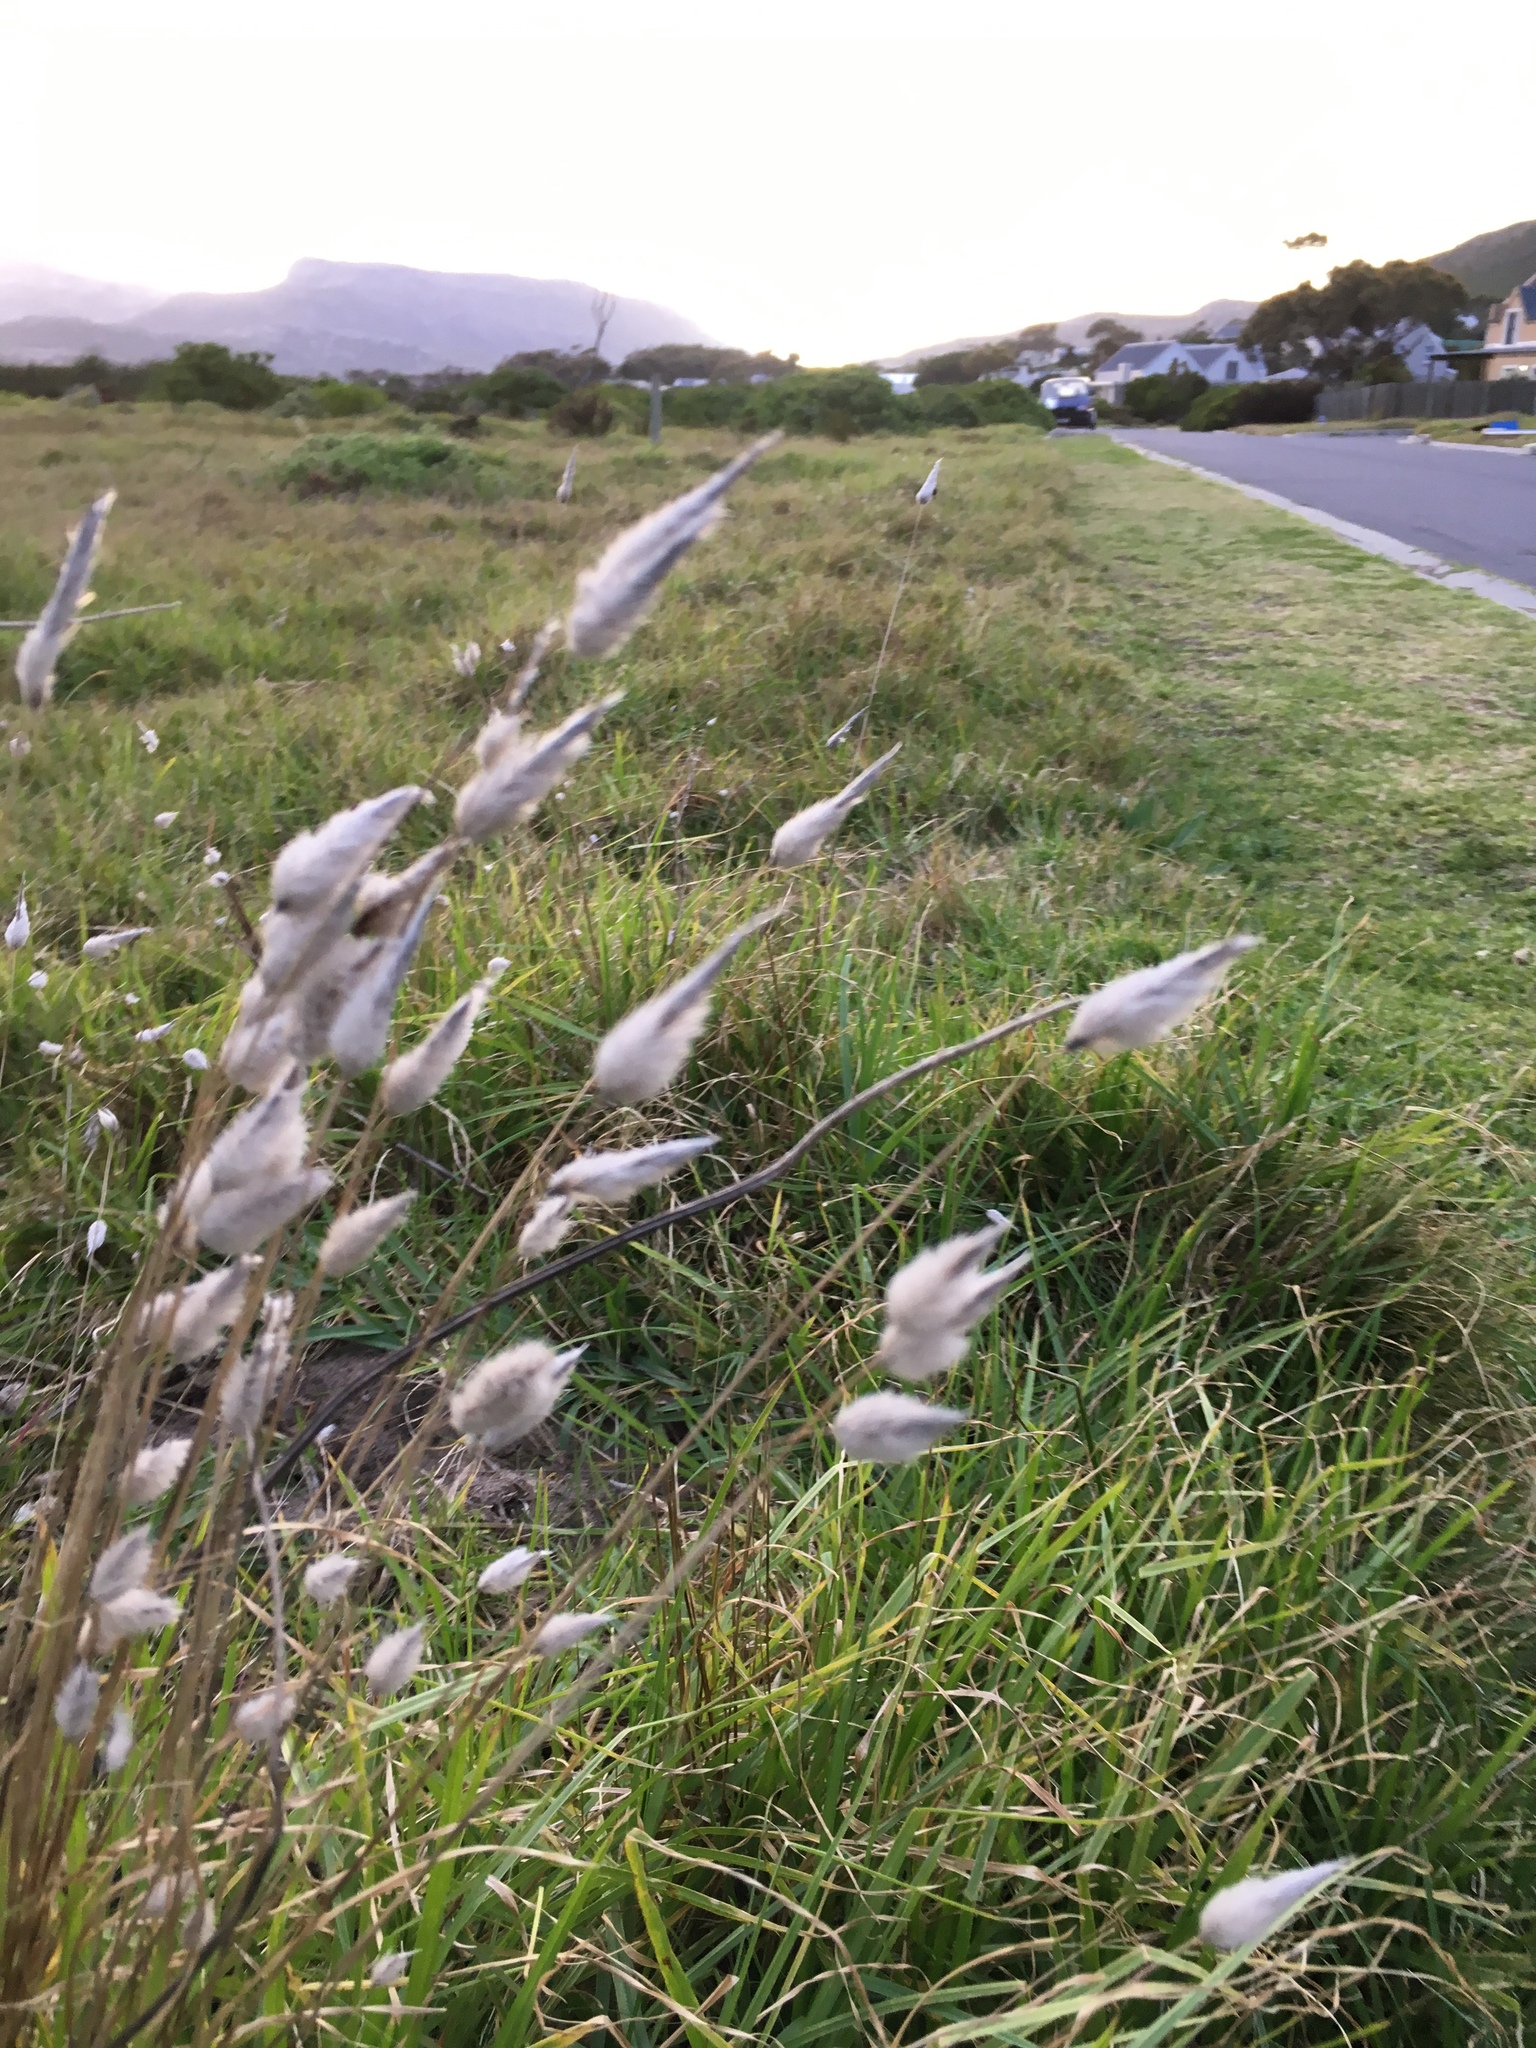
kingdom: Plantae
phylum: Tracheophyta
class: Liliopsida
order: Poales
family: Poaceae
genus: Polypogon
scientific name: Polypogon monspeliensis
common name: Annual rabbitsfoot grass
